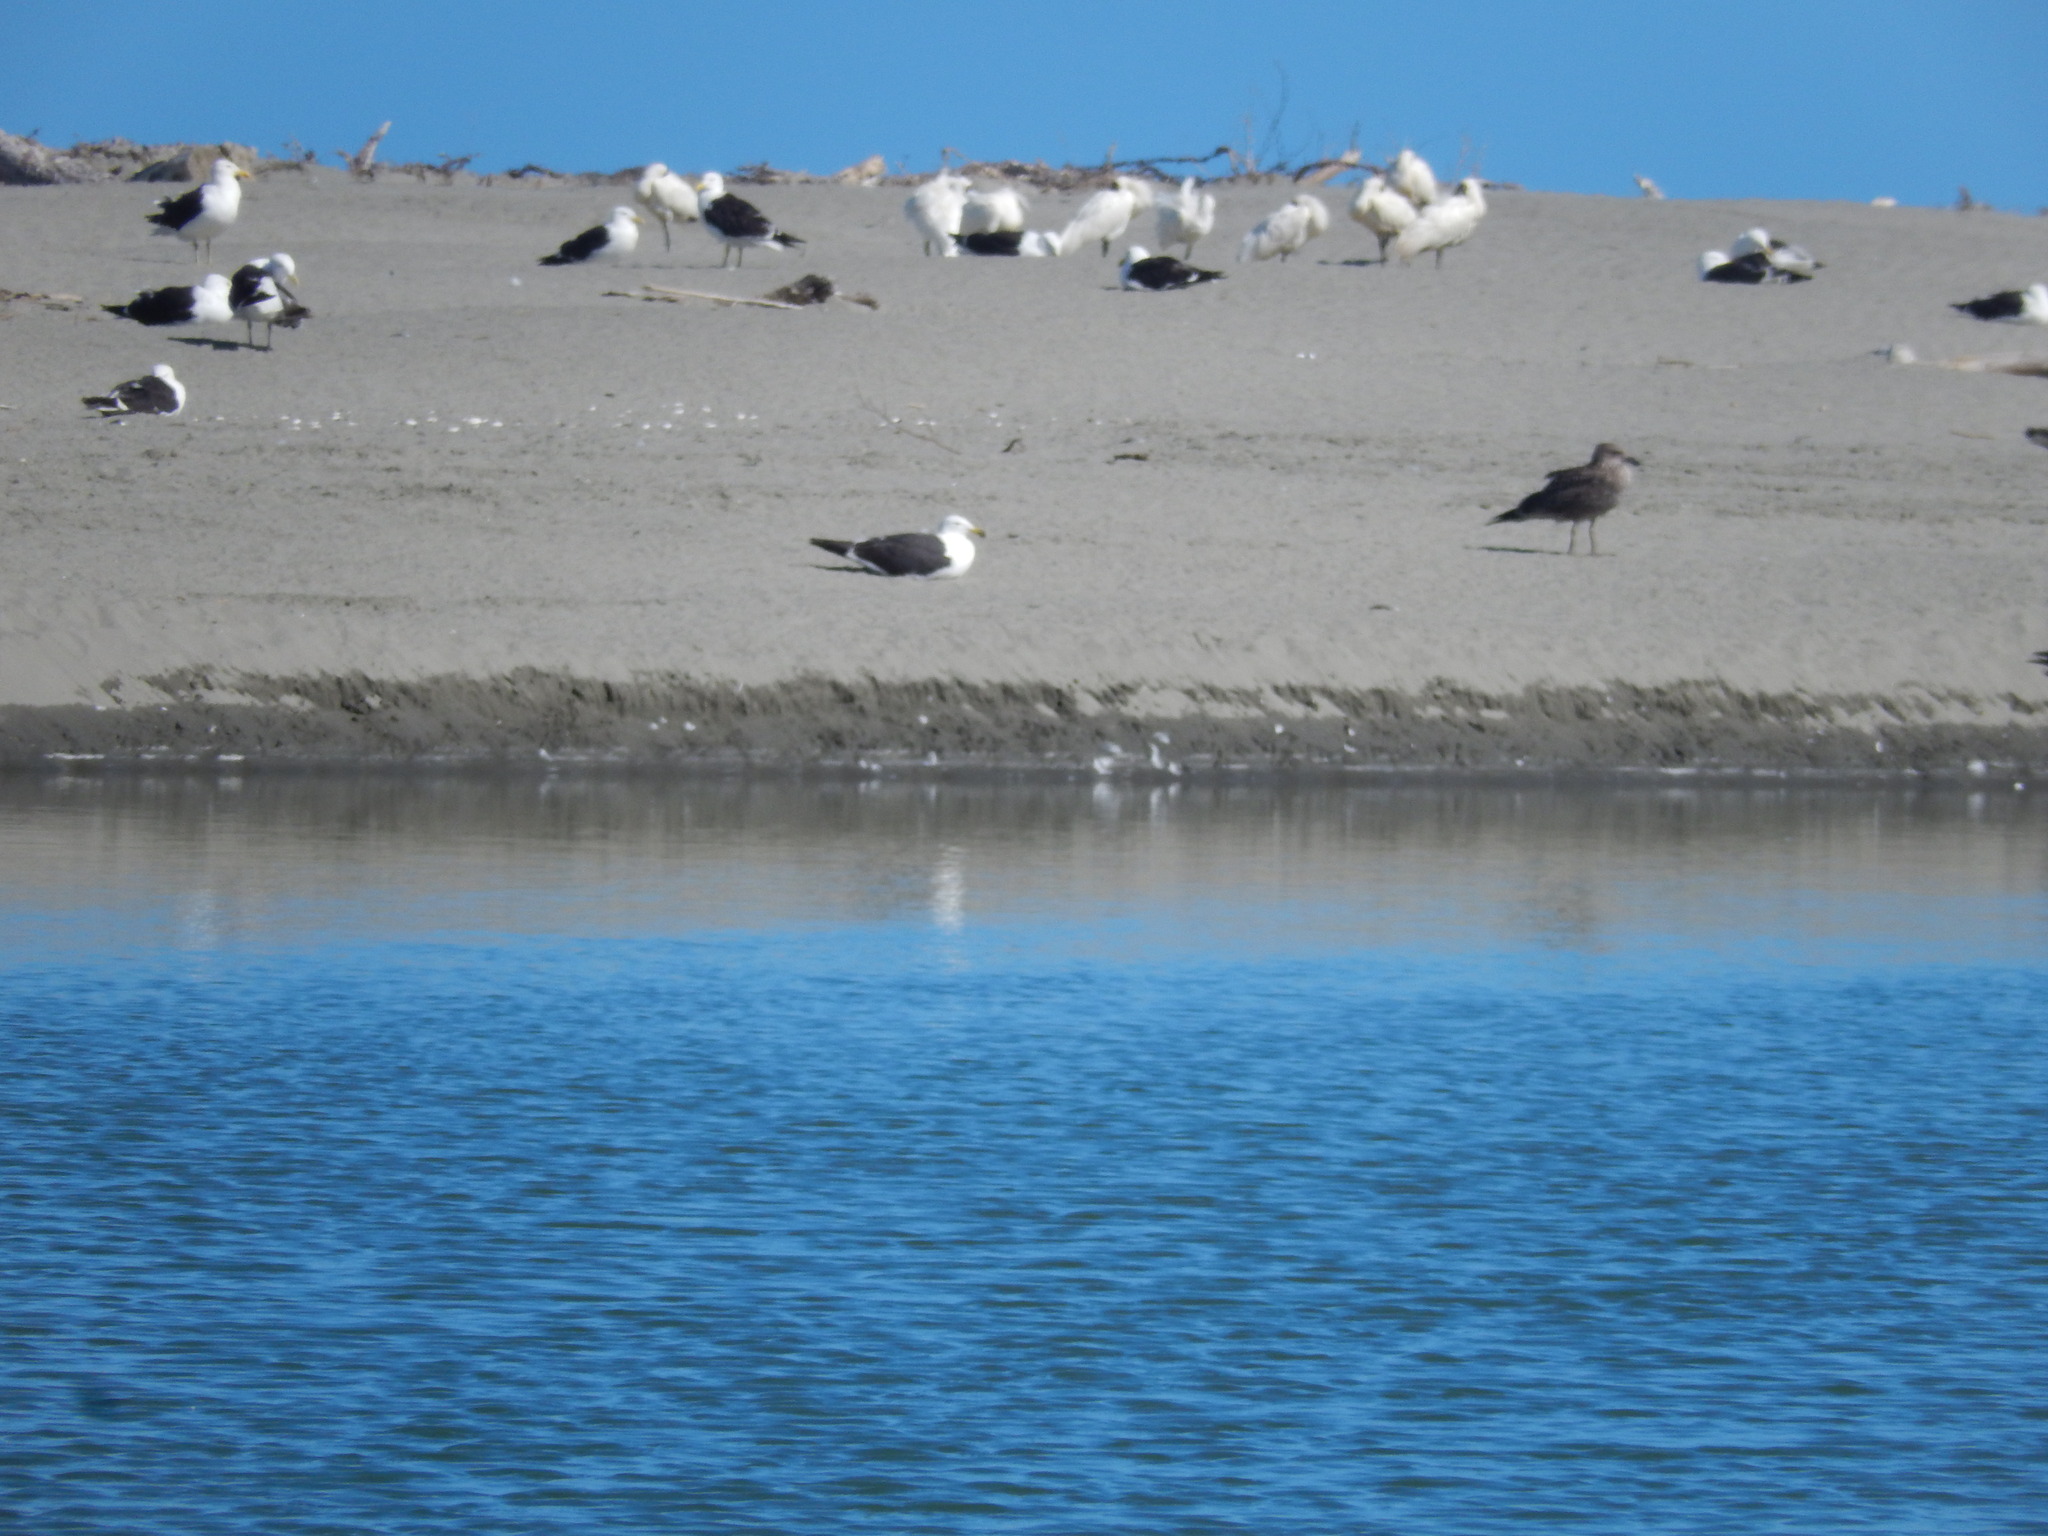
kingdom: Animalia
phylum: Chordata
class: Aves
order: Pelecaniformes
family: Threskiornithidae
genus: Platalea
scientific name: Platalea regia
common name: Royal spoonbill
